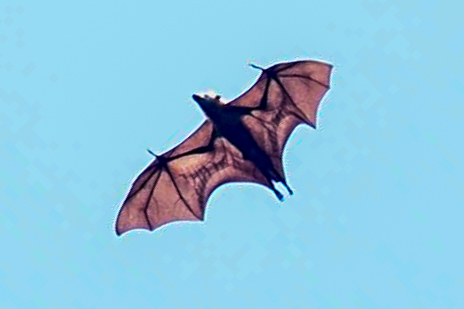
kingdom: Animalia
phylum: Chordata
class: Mammalia
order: Chiroptera
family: Pteropodidae
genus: Pteropus
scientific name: Pteropus pelewensis
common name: Palau flying fox
